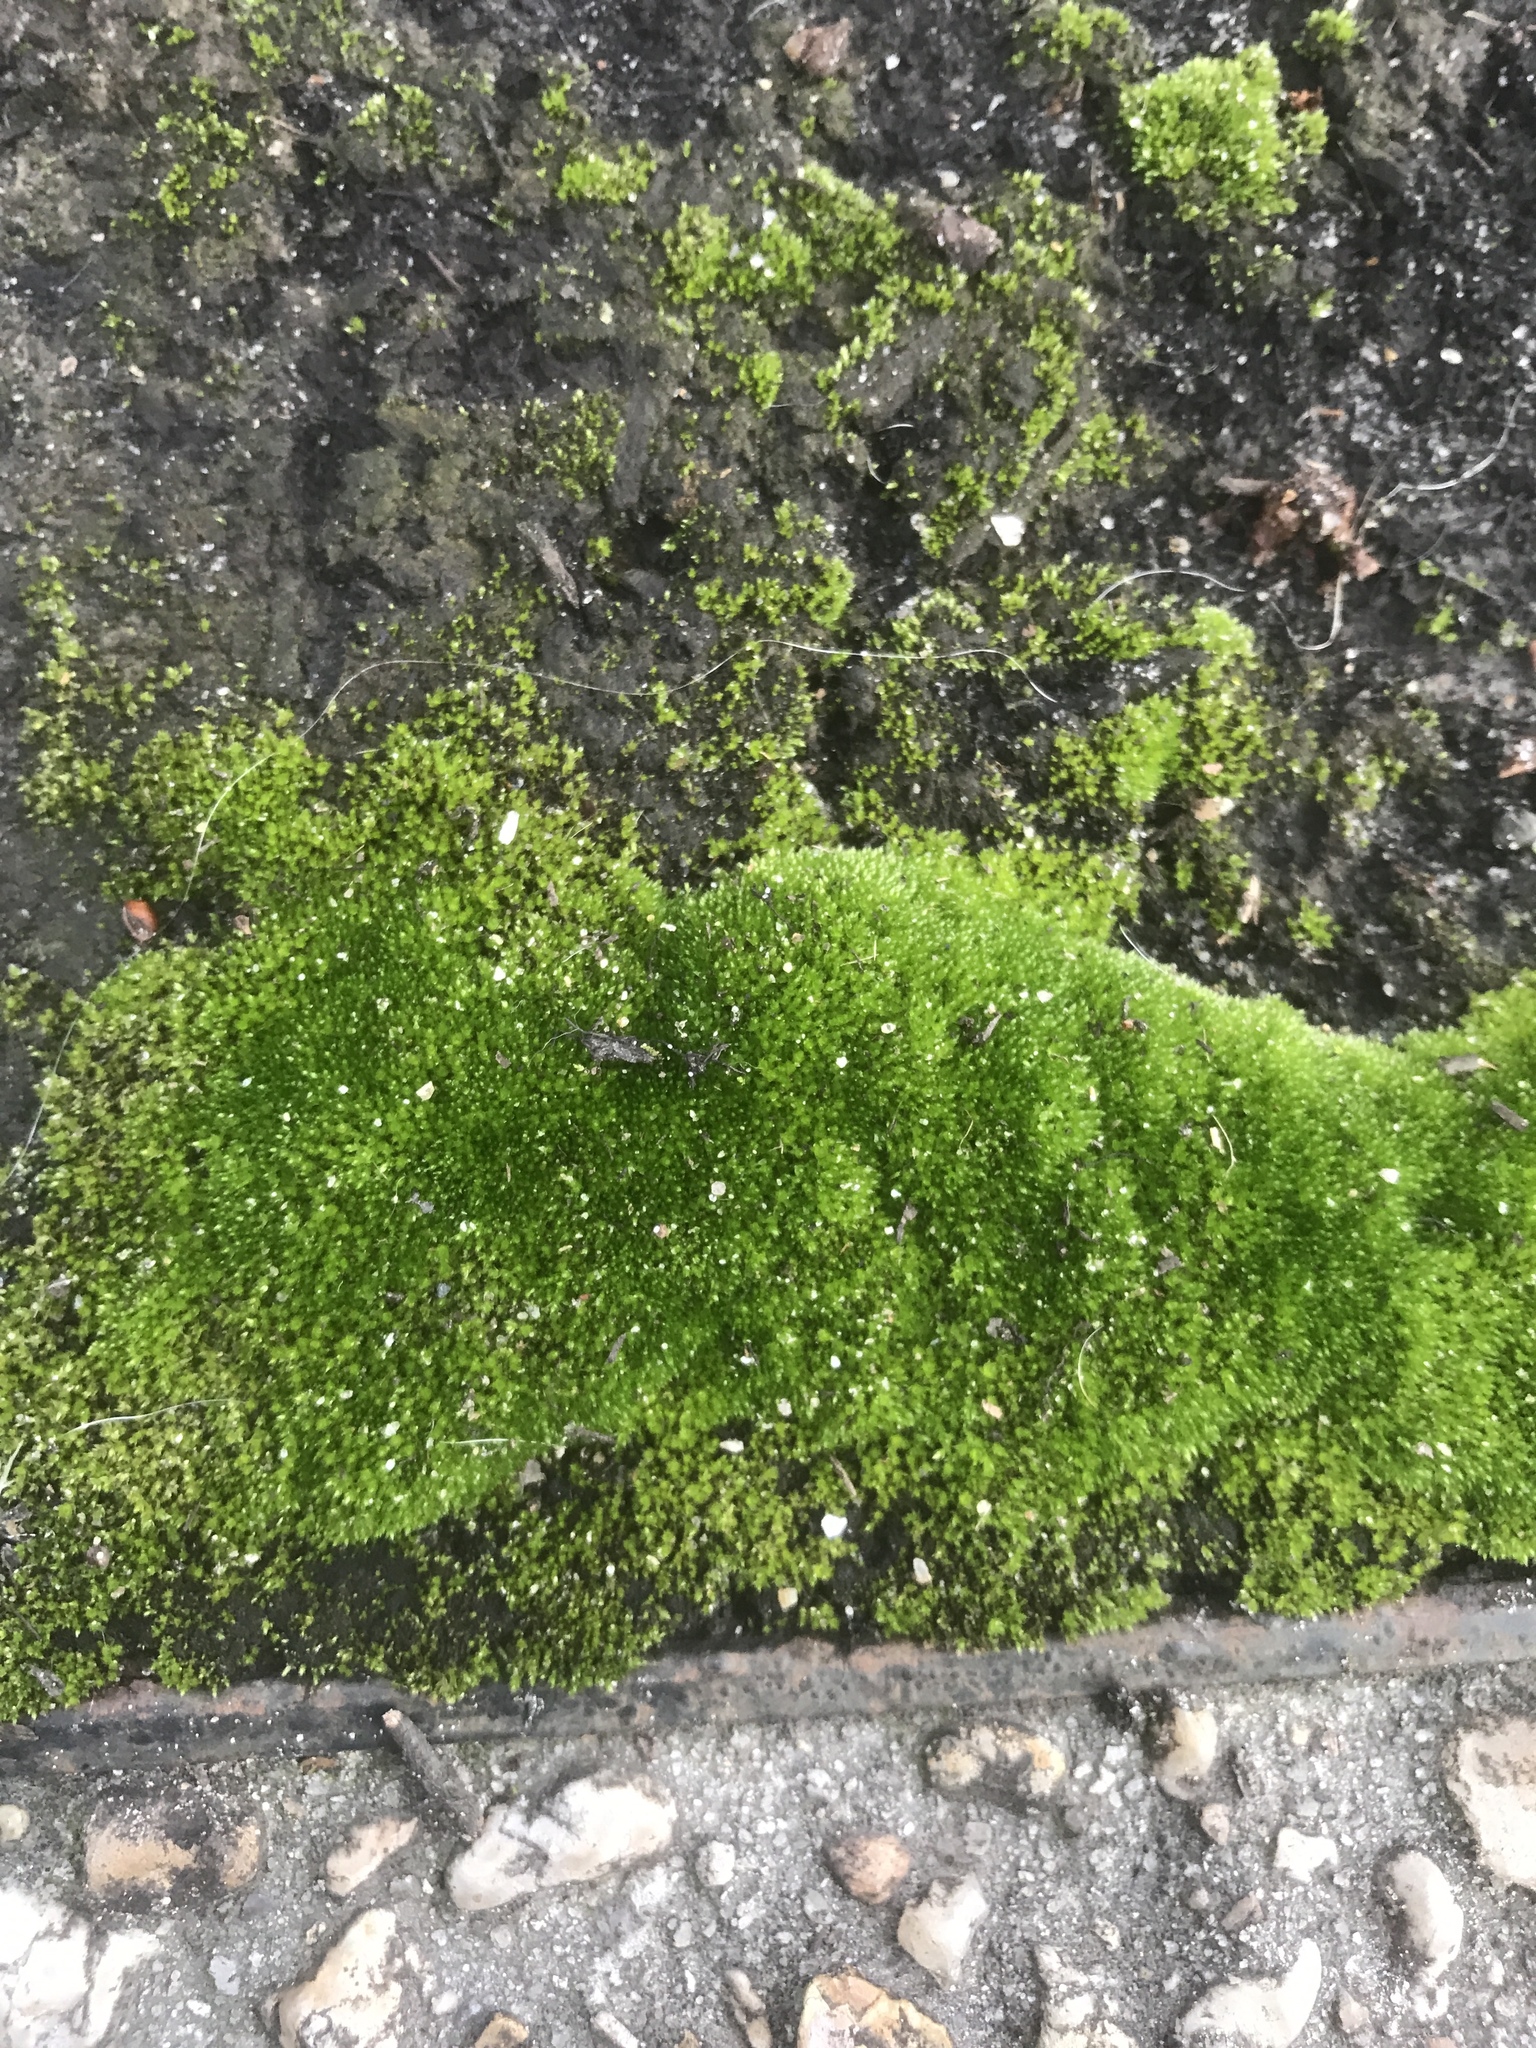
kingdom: Plantae
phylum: Bryophyta
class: Bryopsida
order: Bryales
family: Bryaceae
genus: Bryum
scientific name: Bryum argenteum
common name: Silver-moss
